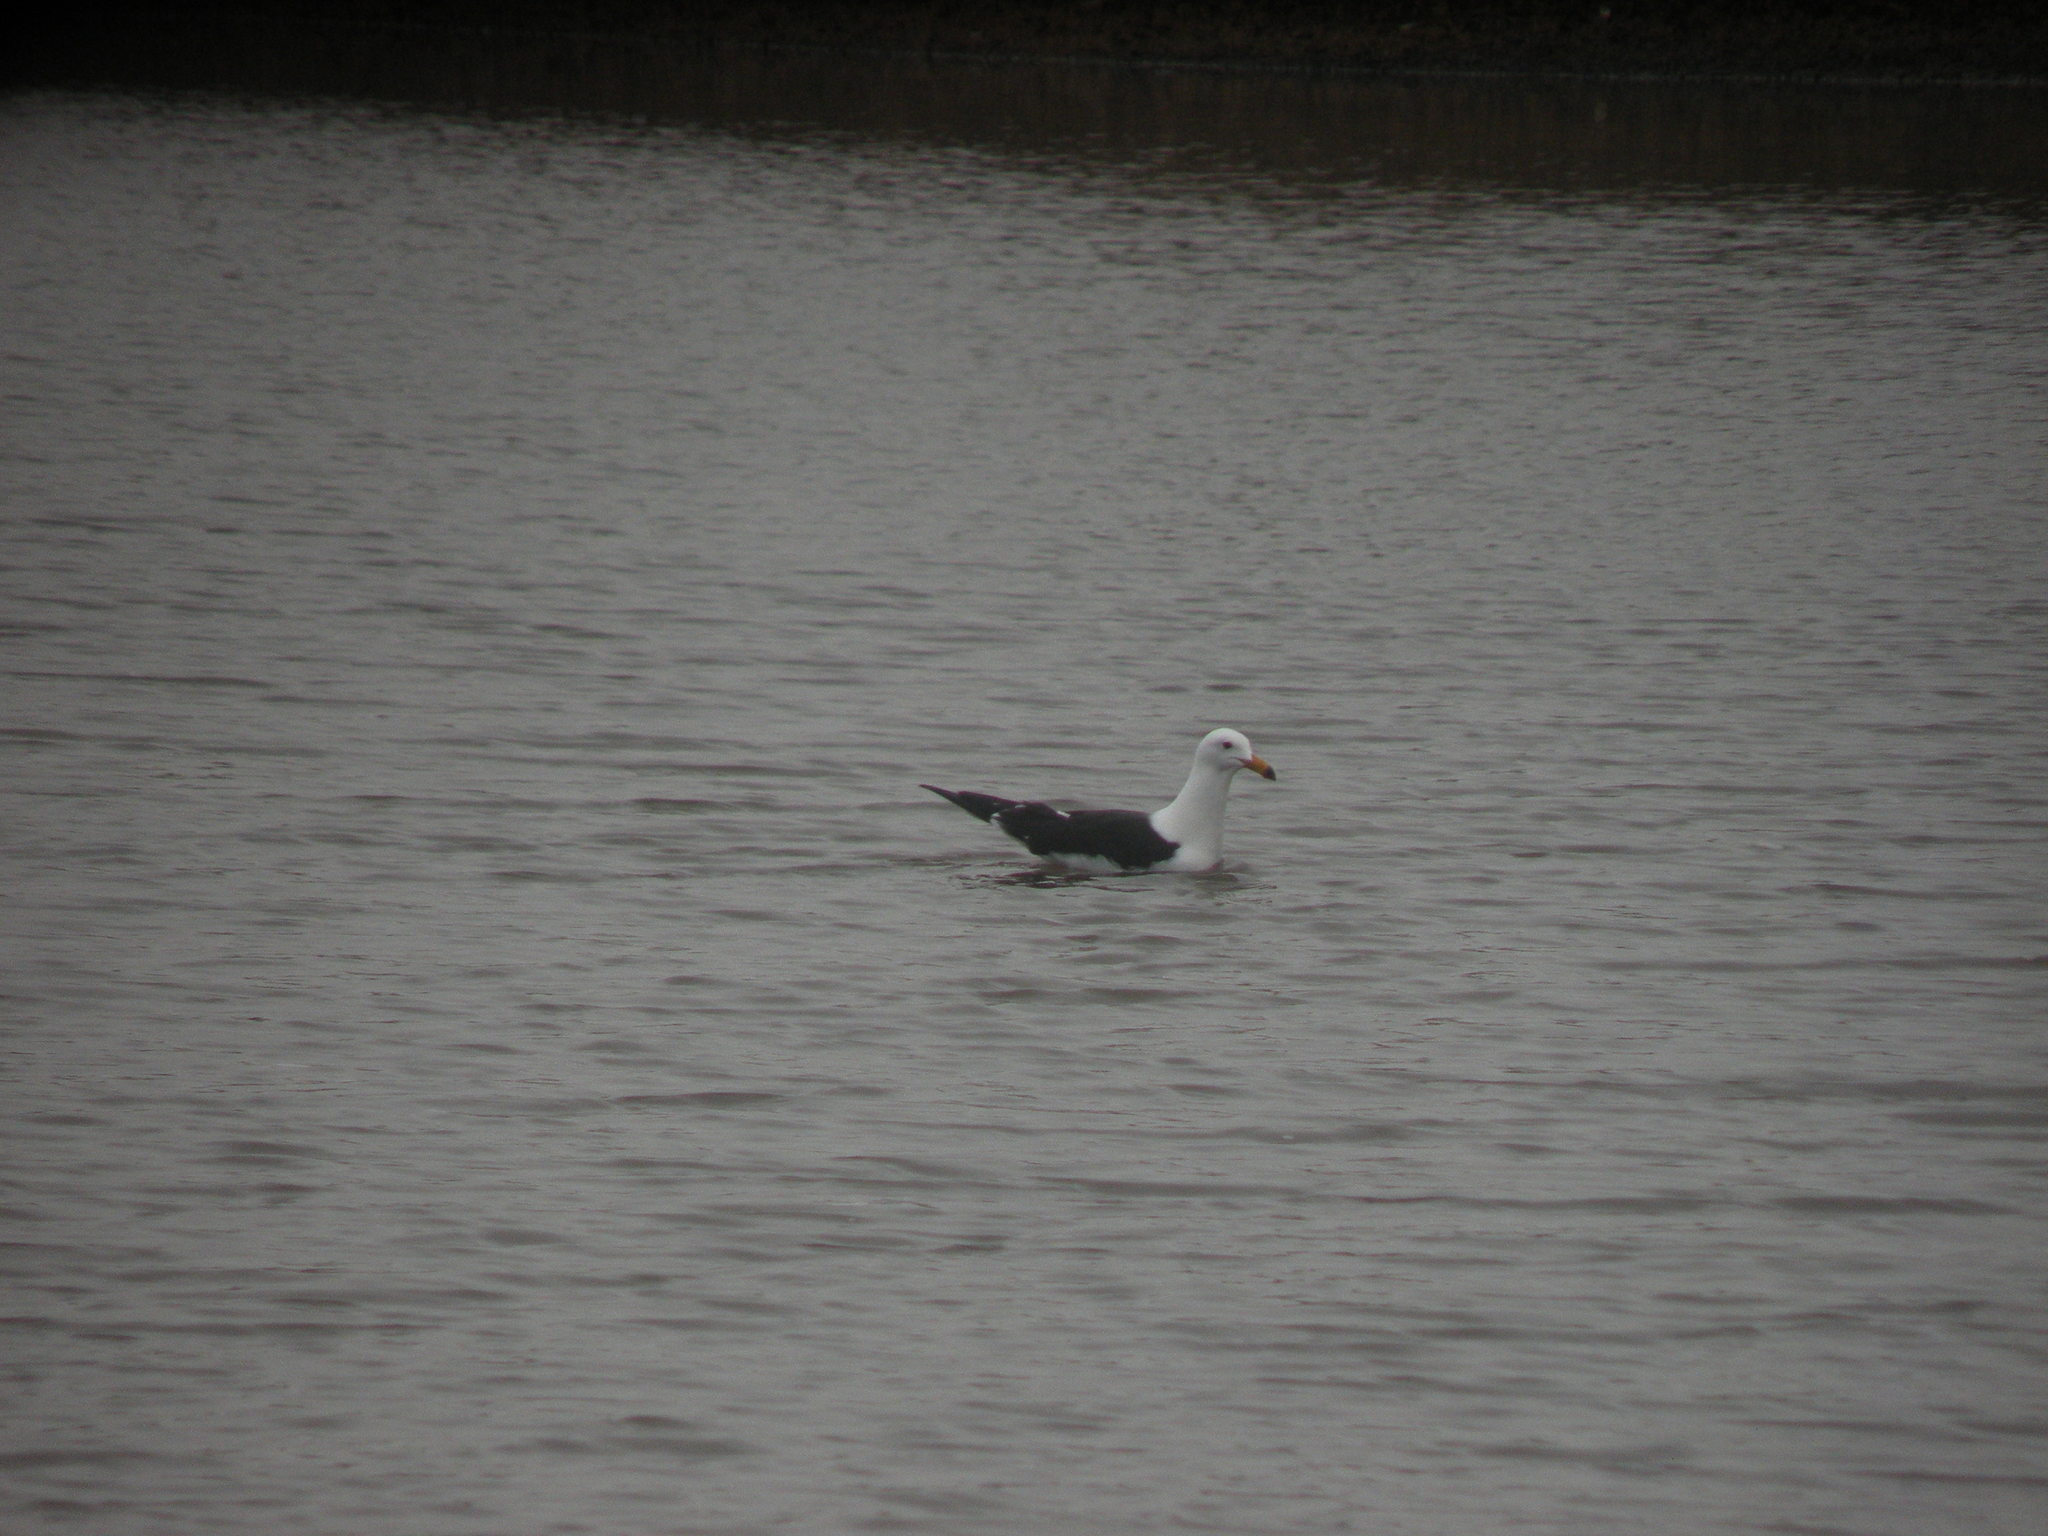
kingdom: Animalia
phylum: Chordata
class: Aves
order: Charadriiformes
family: Laridae
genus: Larus
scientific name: Larus atlanticus
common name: Olrog's gull
